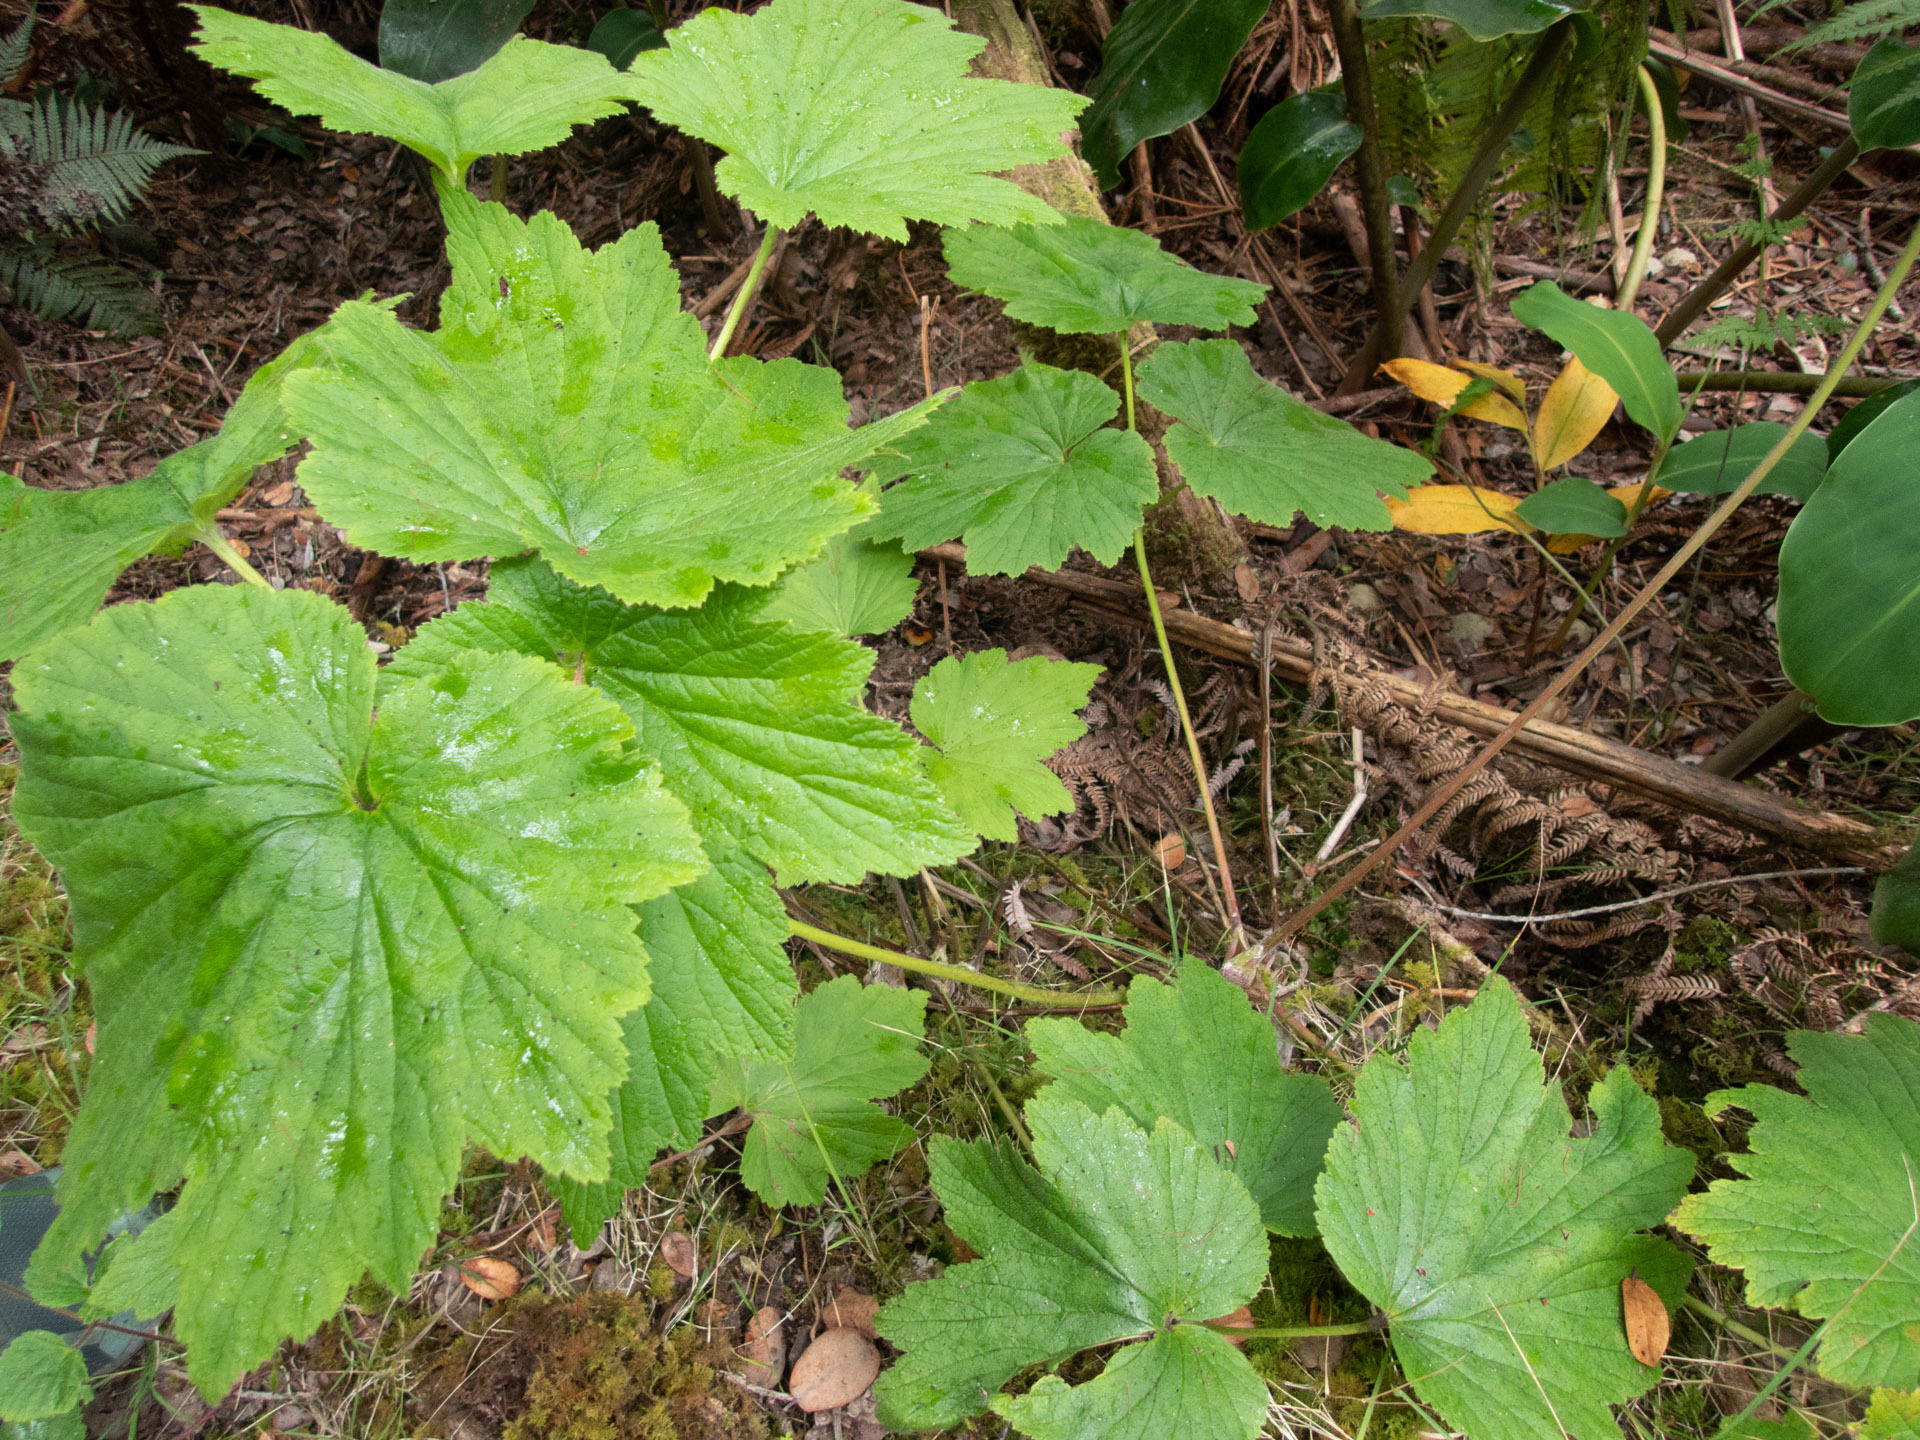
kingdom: Plantae
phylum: Tracheophyta
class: Magnoliopsida
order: Ranunculales
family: Ranunculaceae
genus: Eriocapitella
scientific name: Eriocapitella japonica
